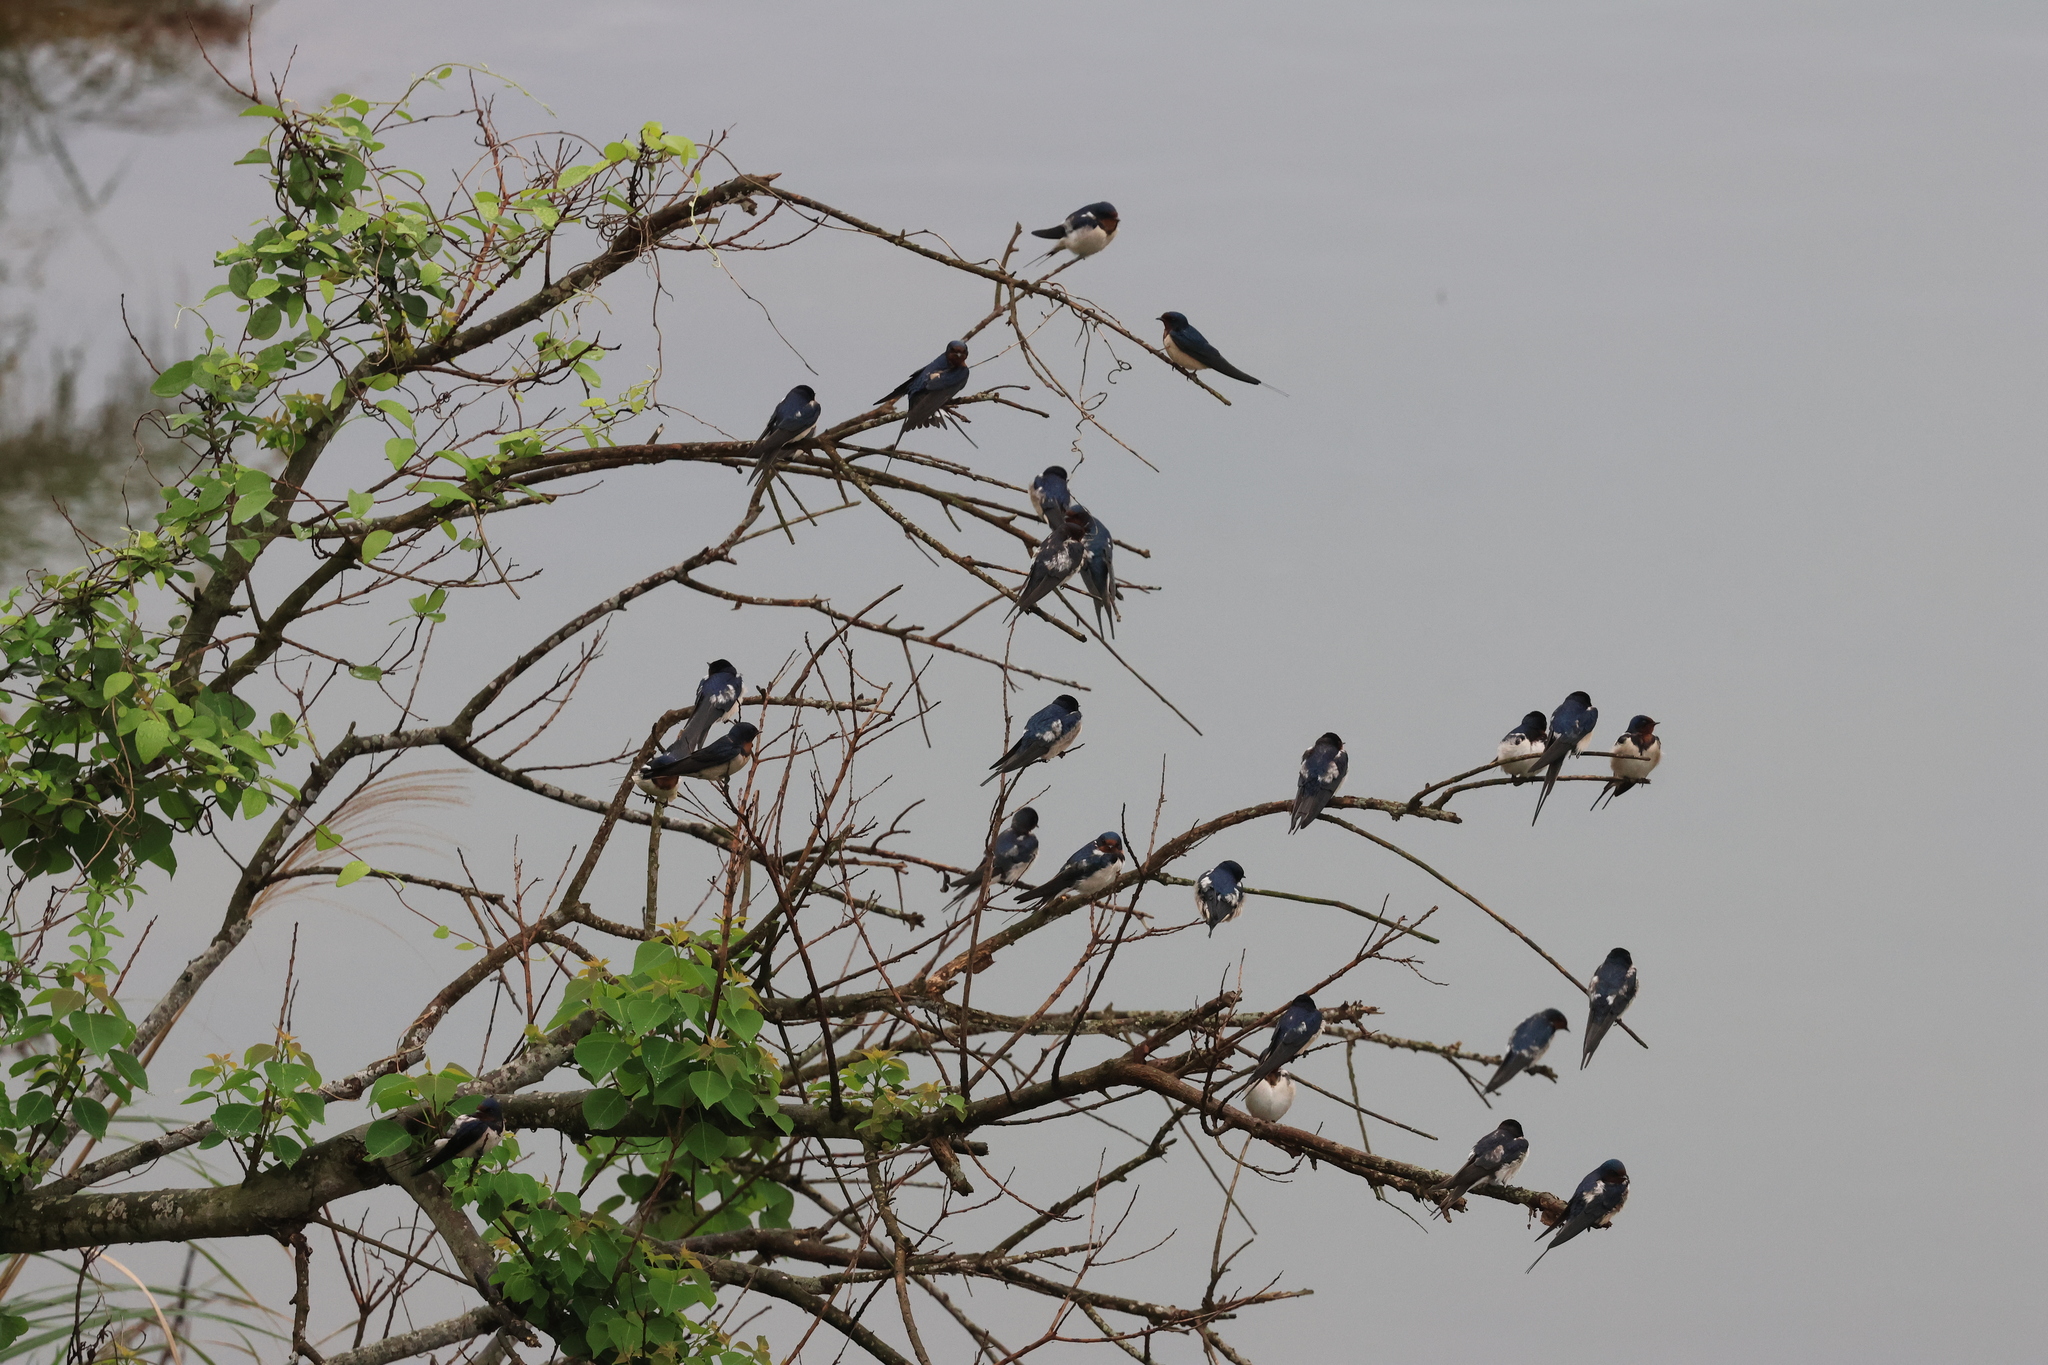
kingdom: Animalia
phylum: Chordata
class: Aves
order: Passeriformes
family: Hirundinidae
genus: Hirundo
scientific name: Hirundo rustica
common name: Barn swallow
